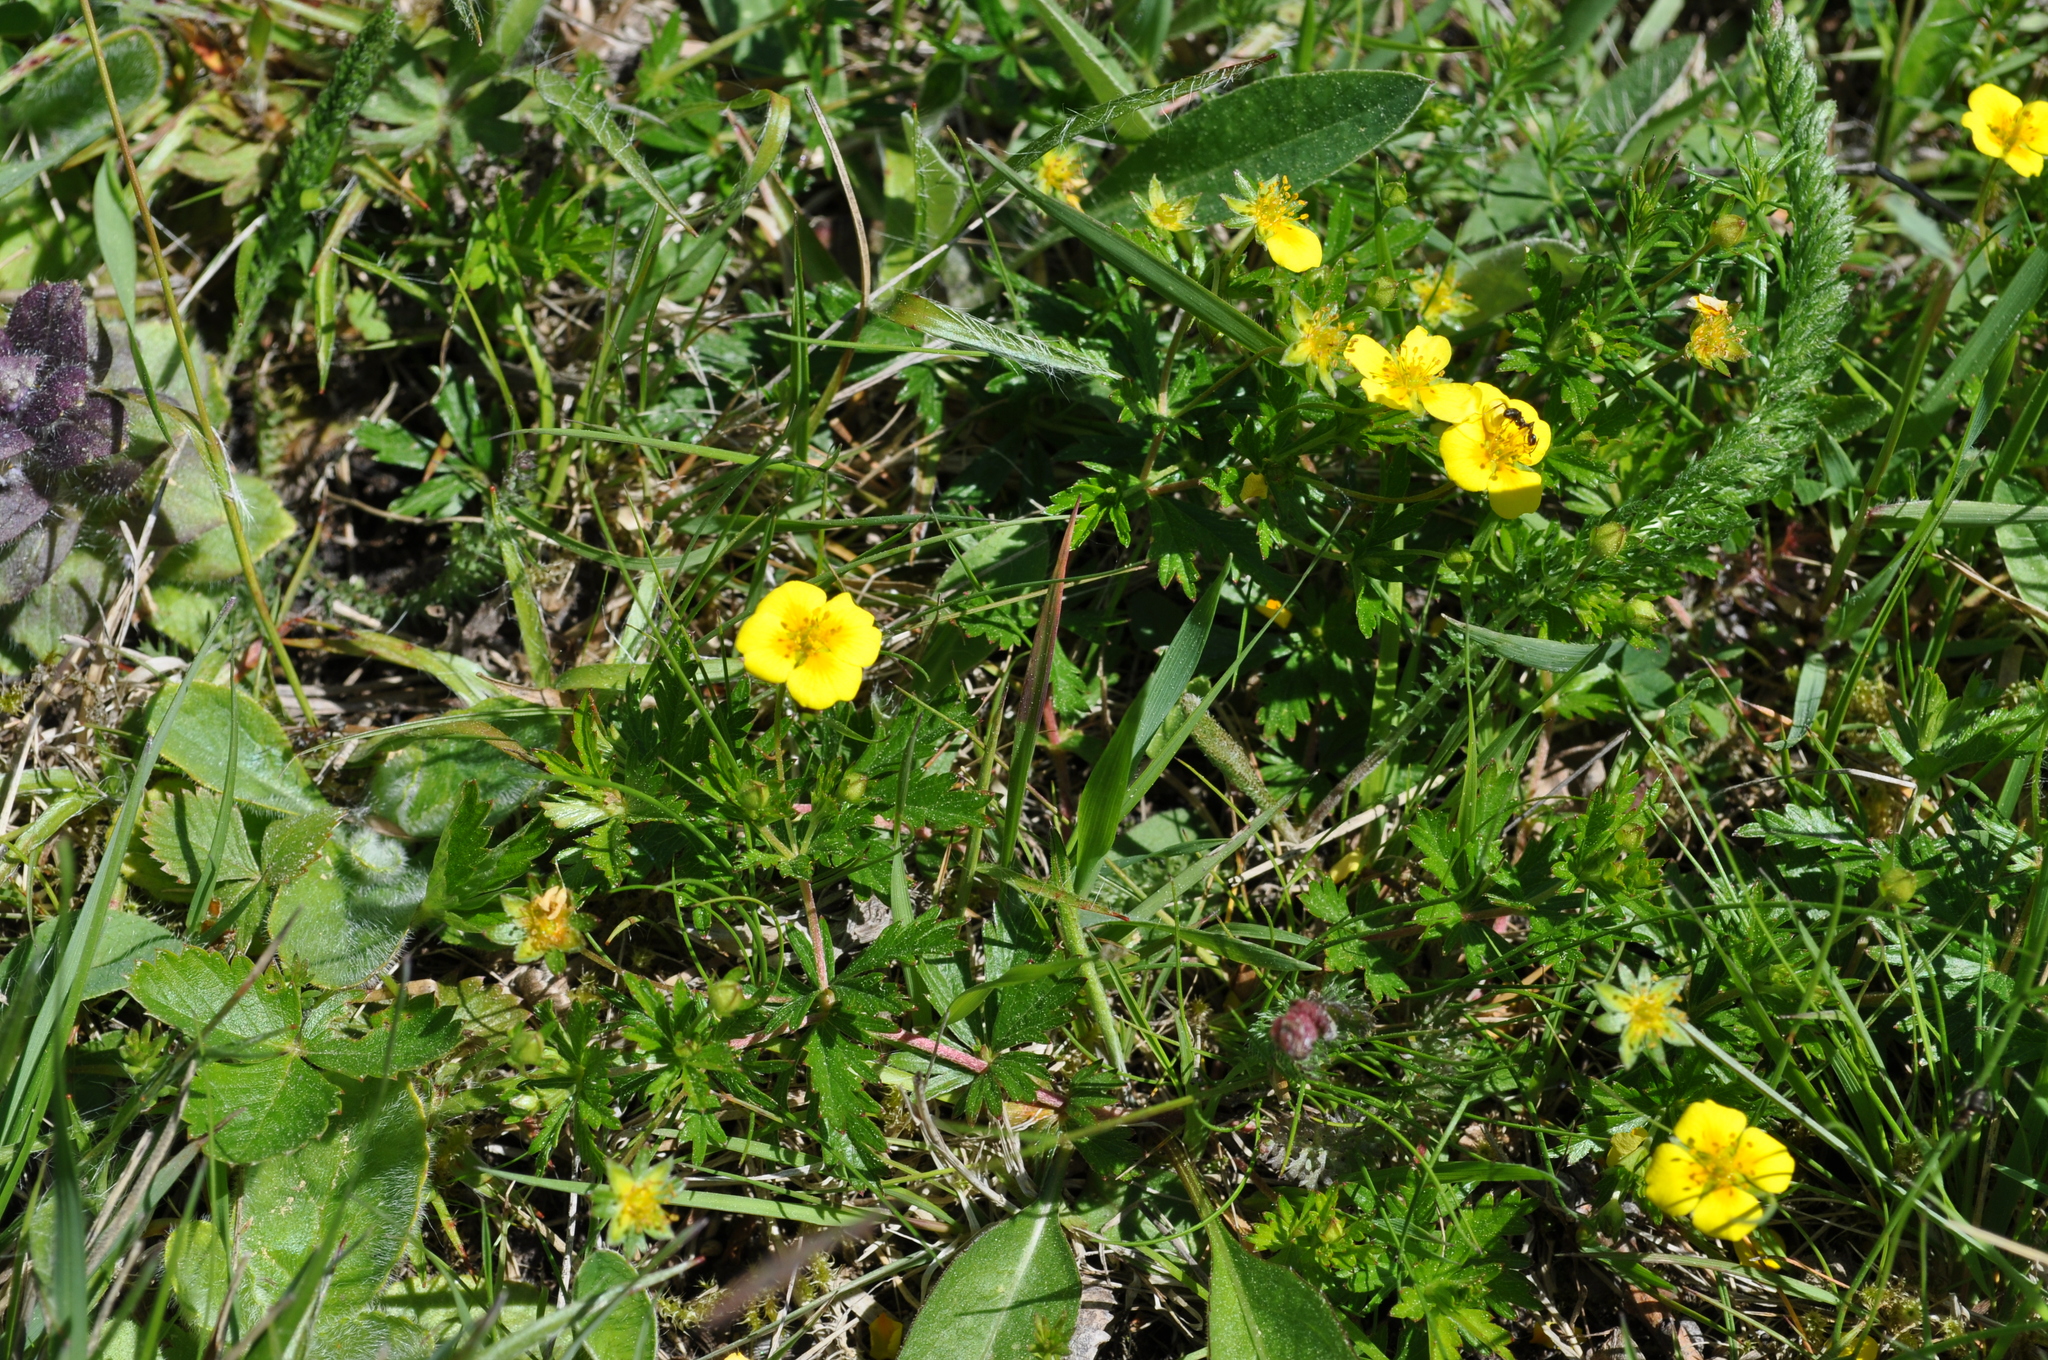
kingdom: Plantae
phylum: Tracheophyta
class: Magnoliopsida
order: Rosales
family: Rosaceae
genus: Potentilla
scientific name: Potentilla erecta
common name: Tormentil
